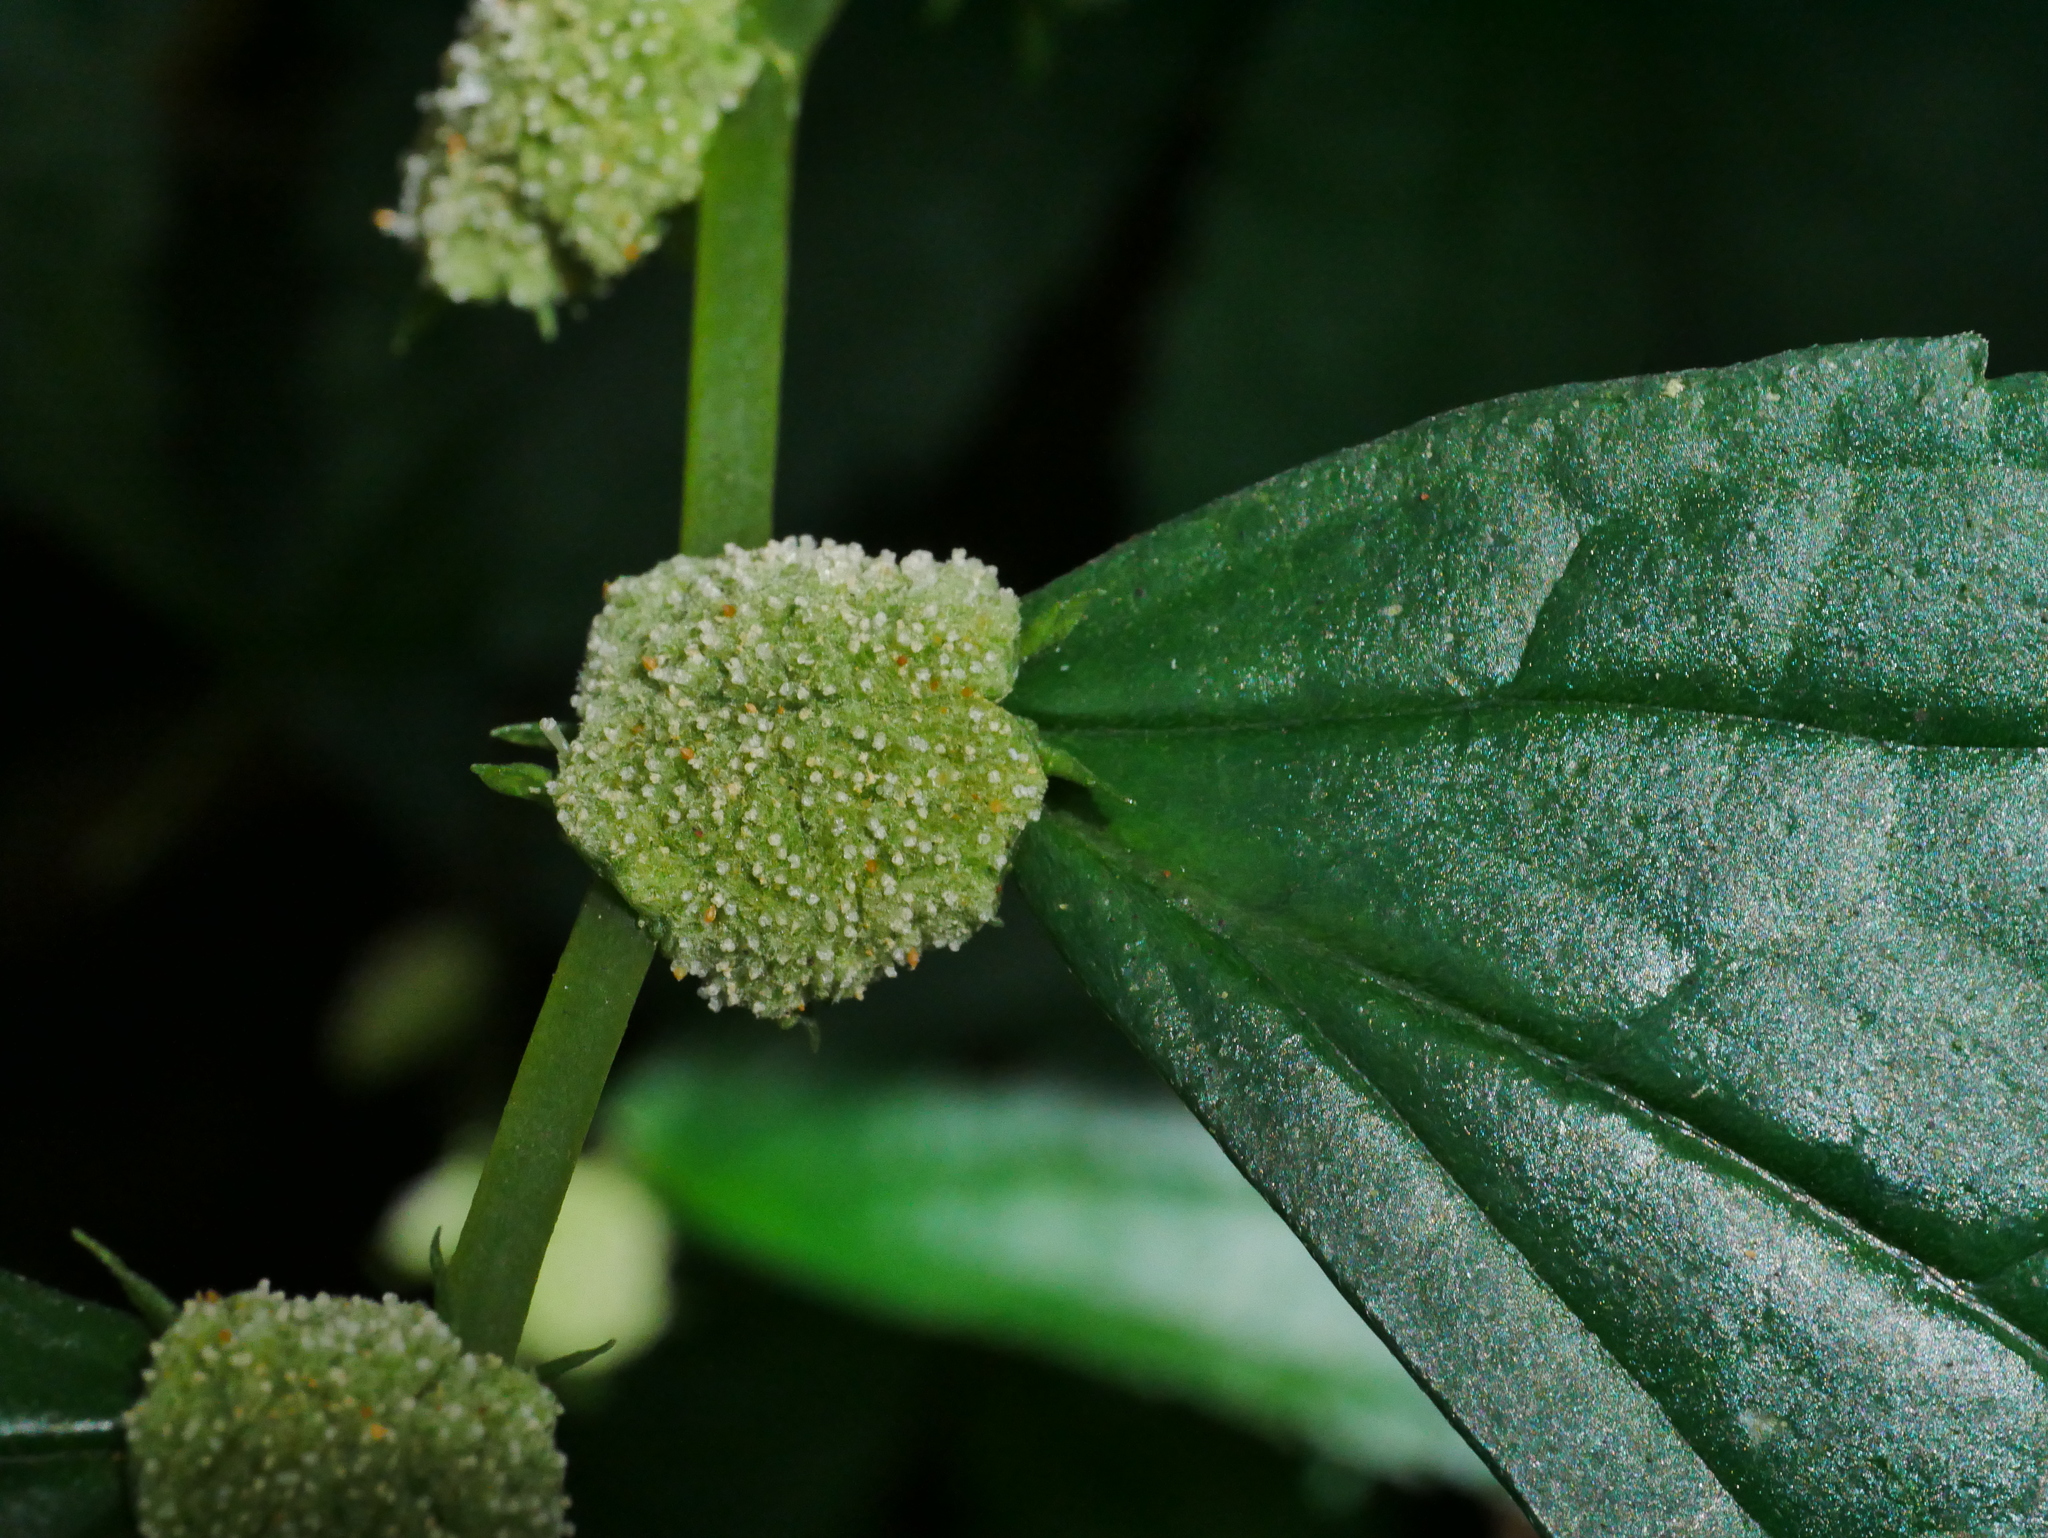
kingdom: Plantae
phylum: Tracheophyta
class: Magnoliopsida
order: Rosales
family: Urticaceae
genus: Elatostema
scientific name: Elatostema cyrtandrifolium
